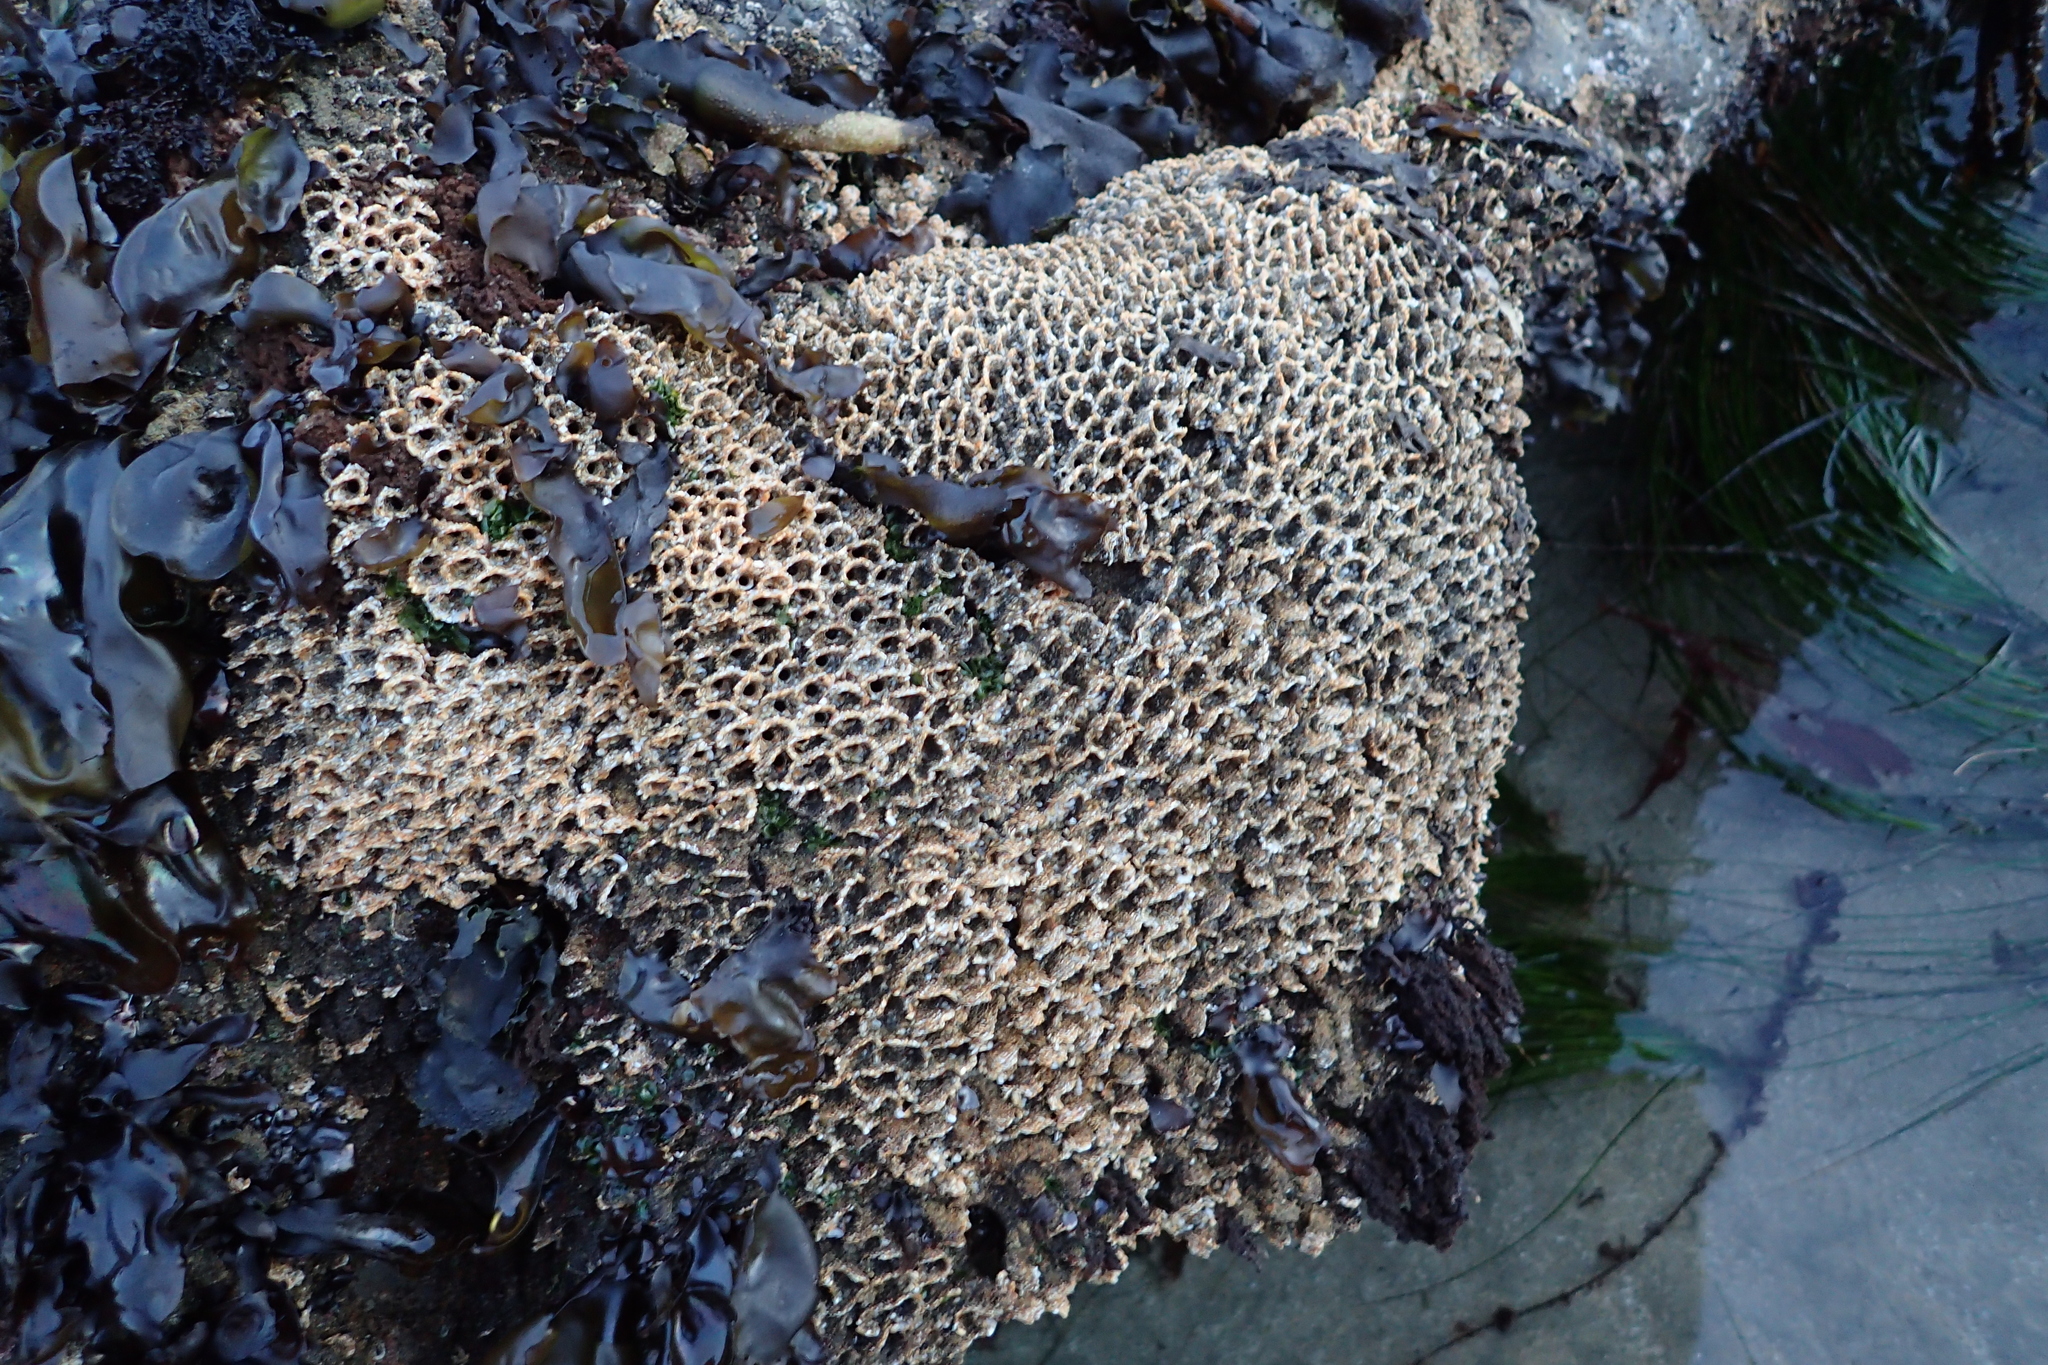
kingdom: Animalia
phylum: Annelida
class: Polychaeta
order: Sabellida
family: Sabellariidae
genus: Phragmatopoma
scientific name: Phragmatopoma californica
